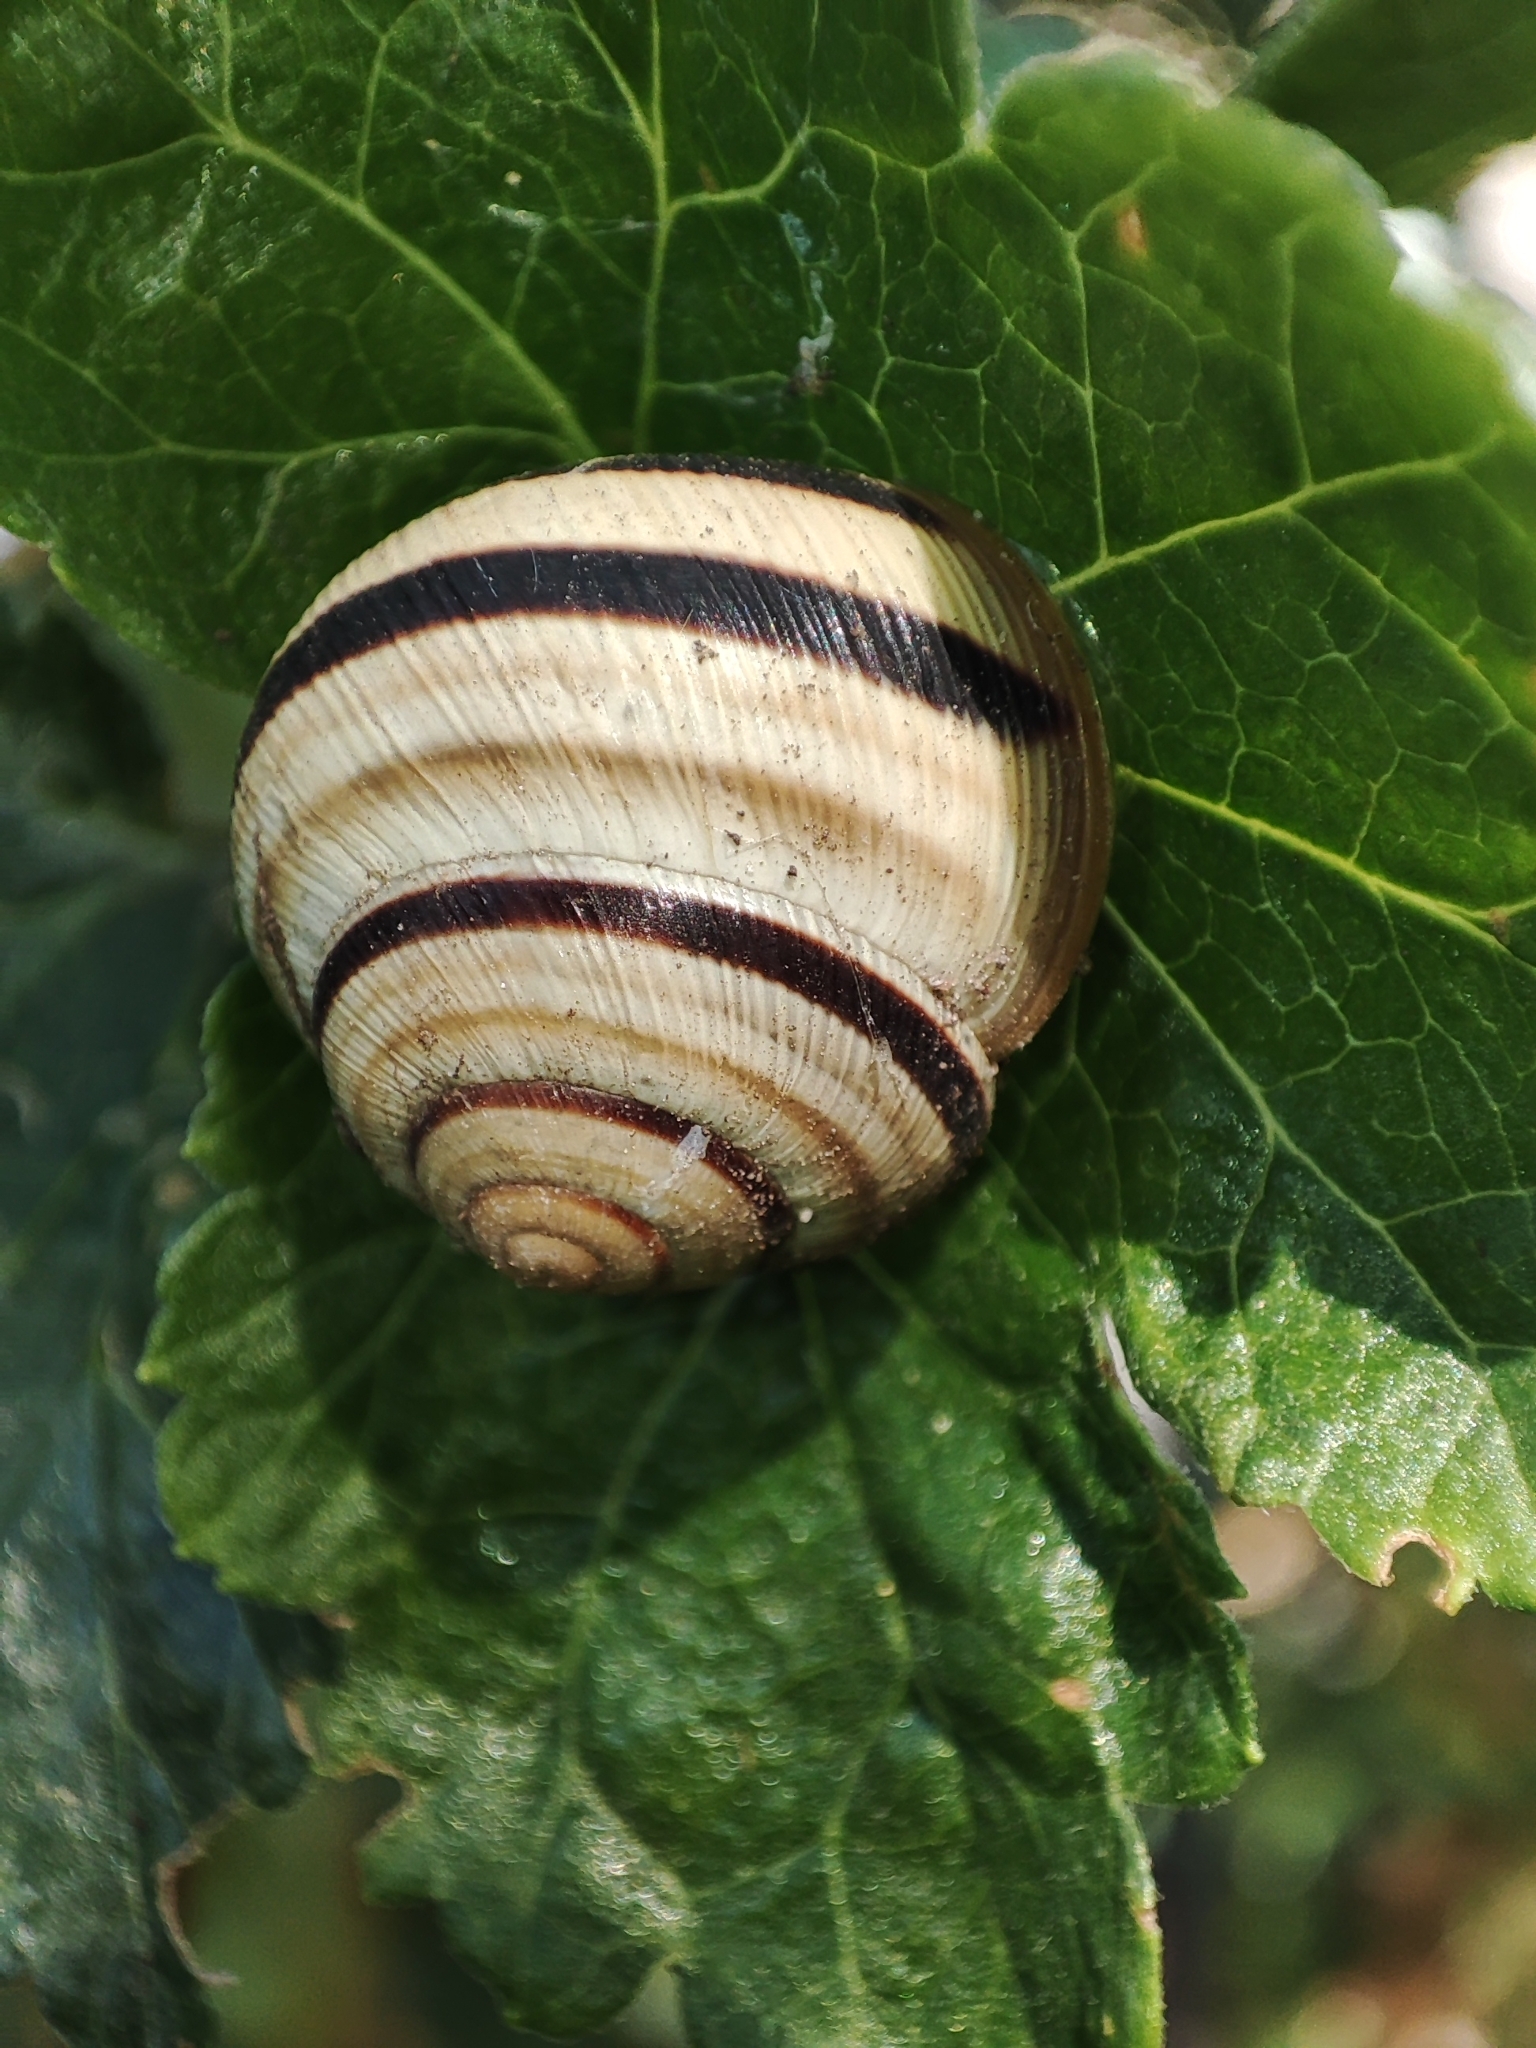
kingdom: Animalia
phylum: Mollusca
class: Gastropoda
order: Stylommatophora
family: Helicidae
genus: Caucasotachea
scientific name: Caucasotachea vindobonensis
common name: European helicid land snail
